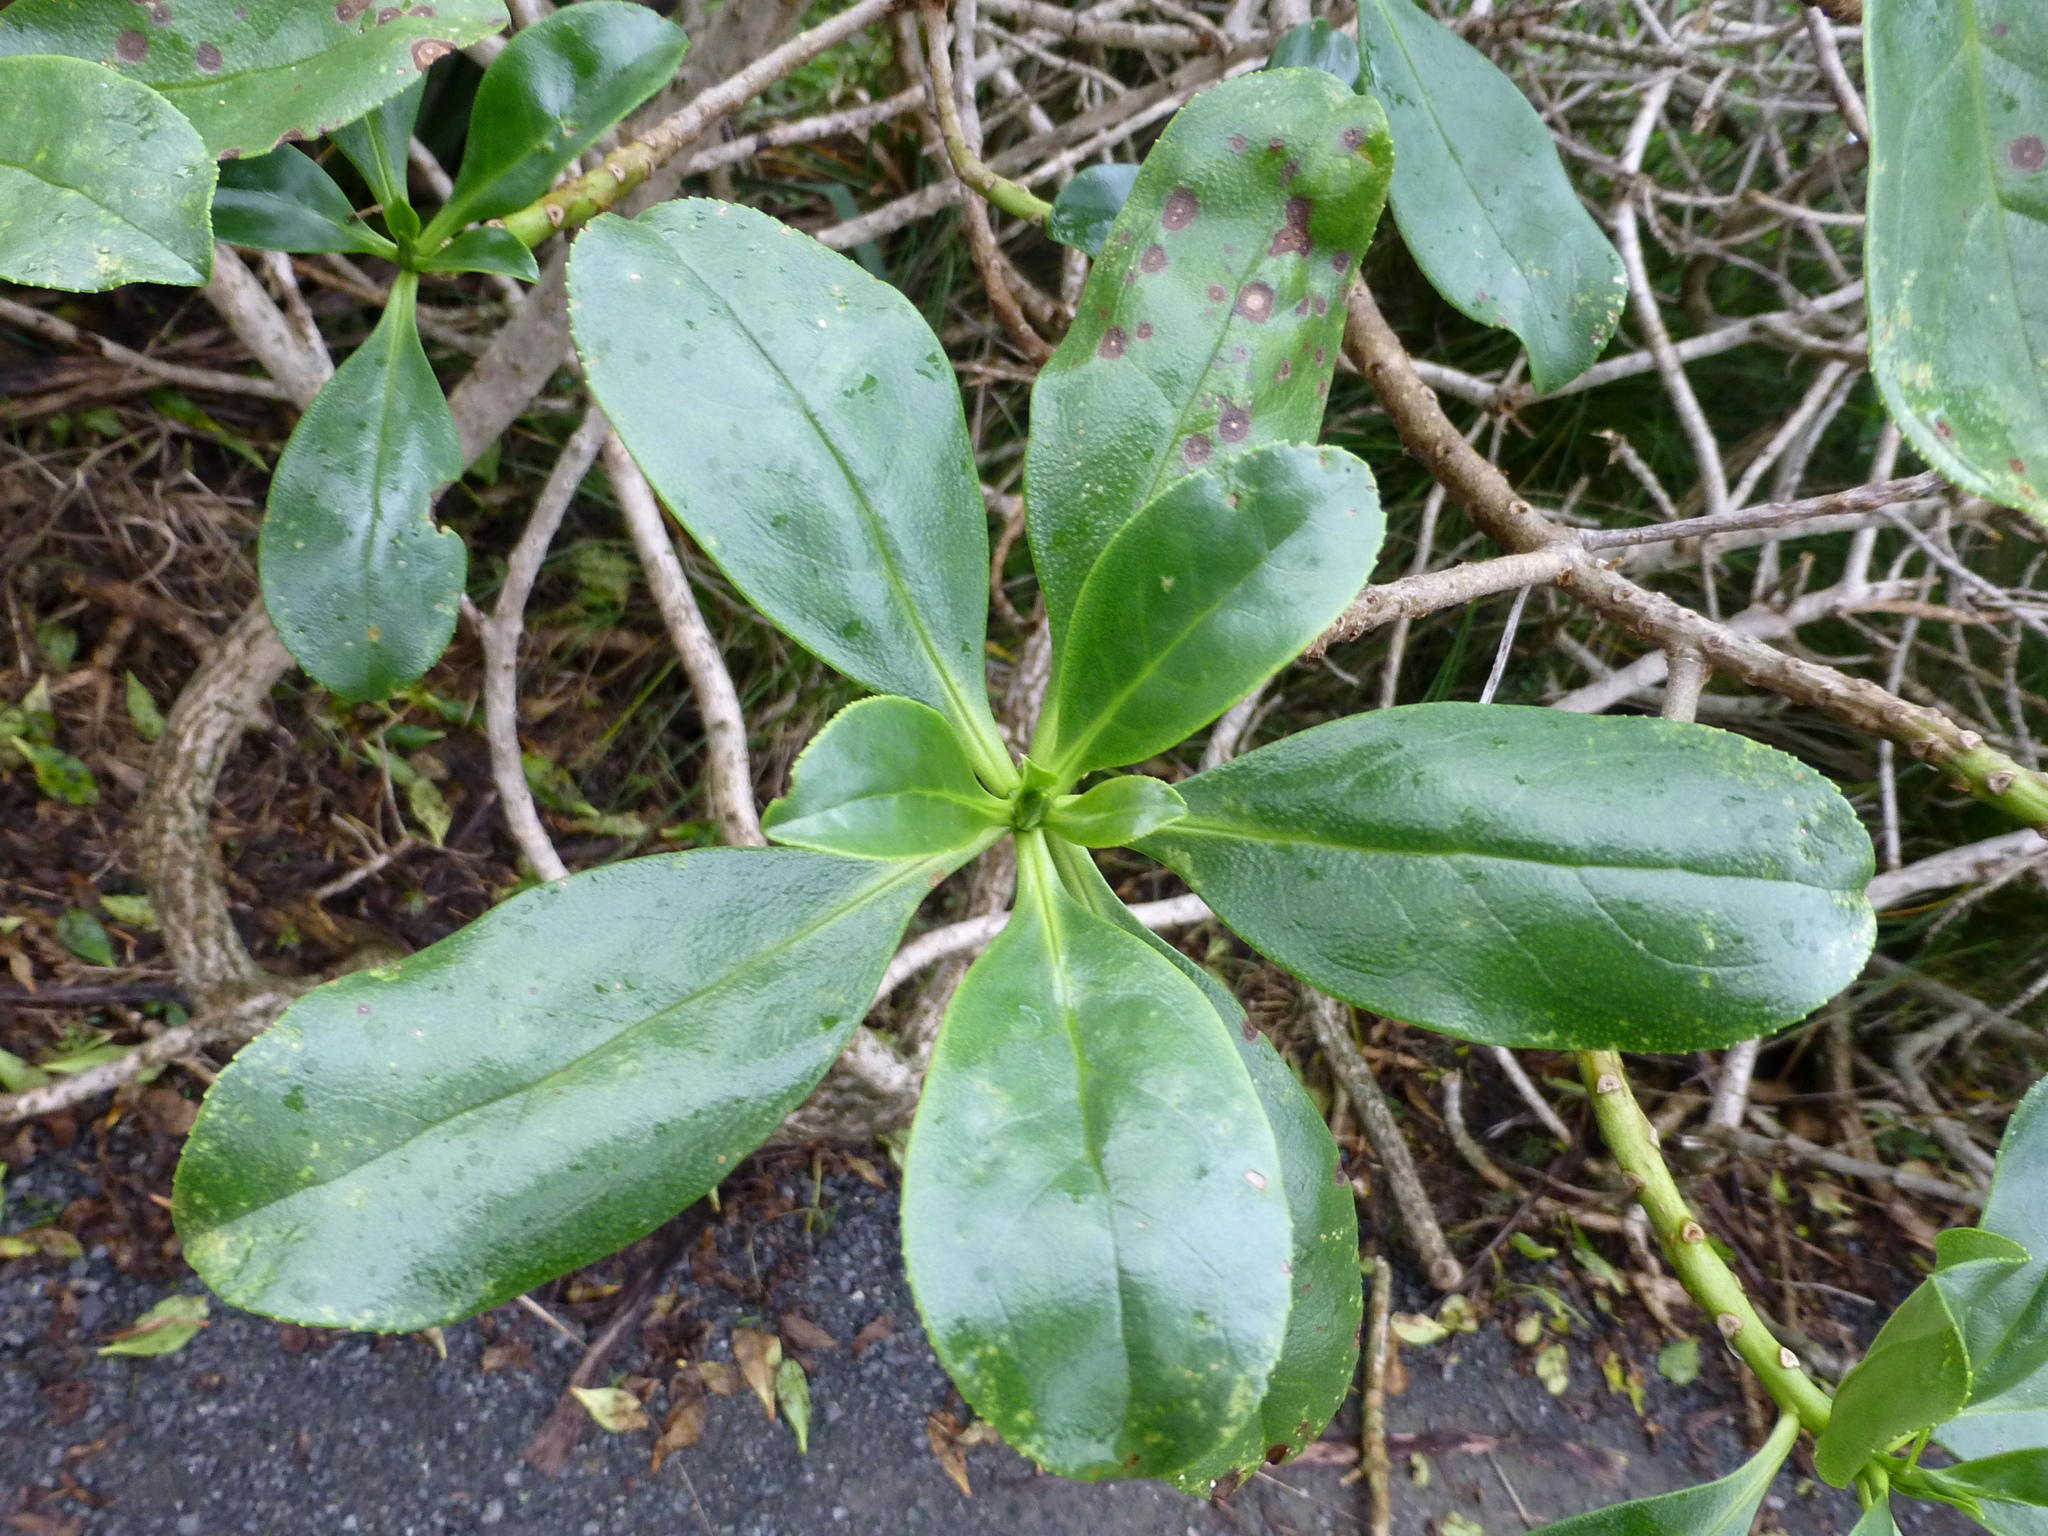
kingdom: Plantae
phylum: Tracheophyta
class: Magnoliopsida
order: Lamiales
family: Scrophulariaceae
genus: Myoporum
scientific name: Myoporum insulare
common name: Common boobialla
